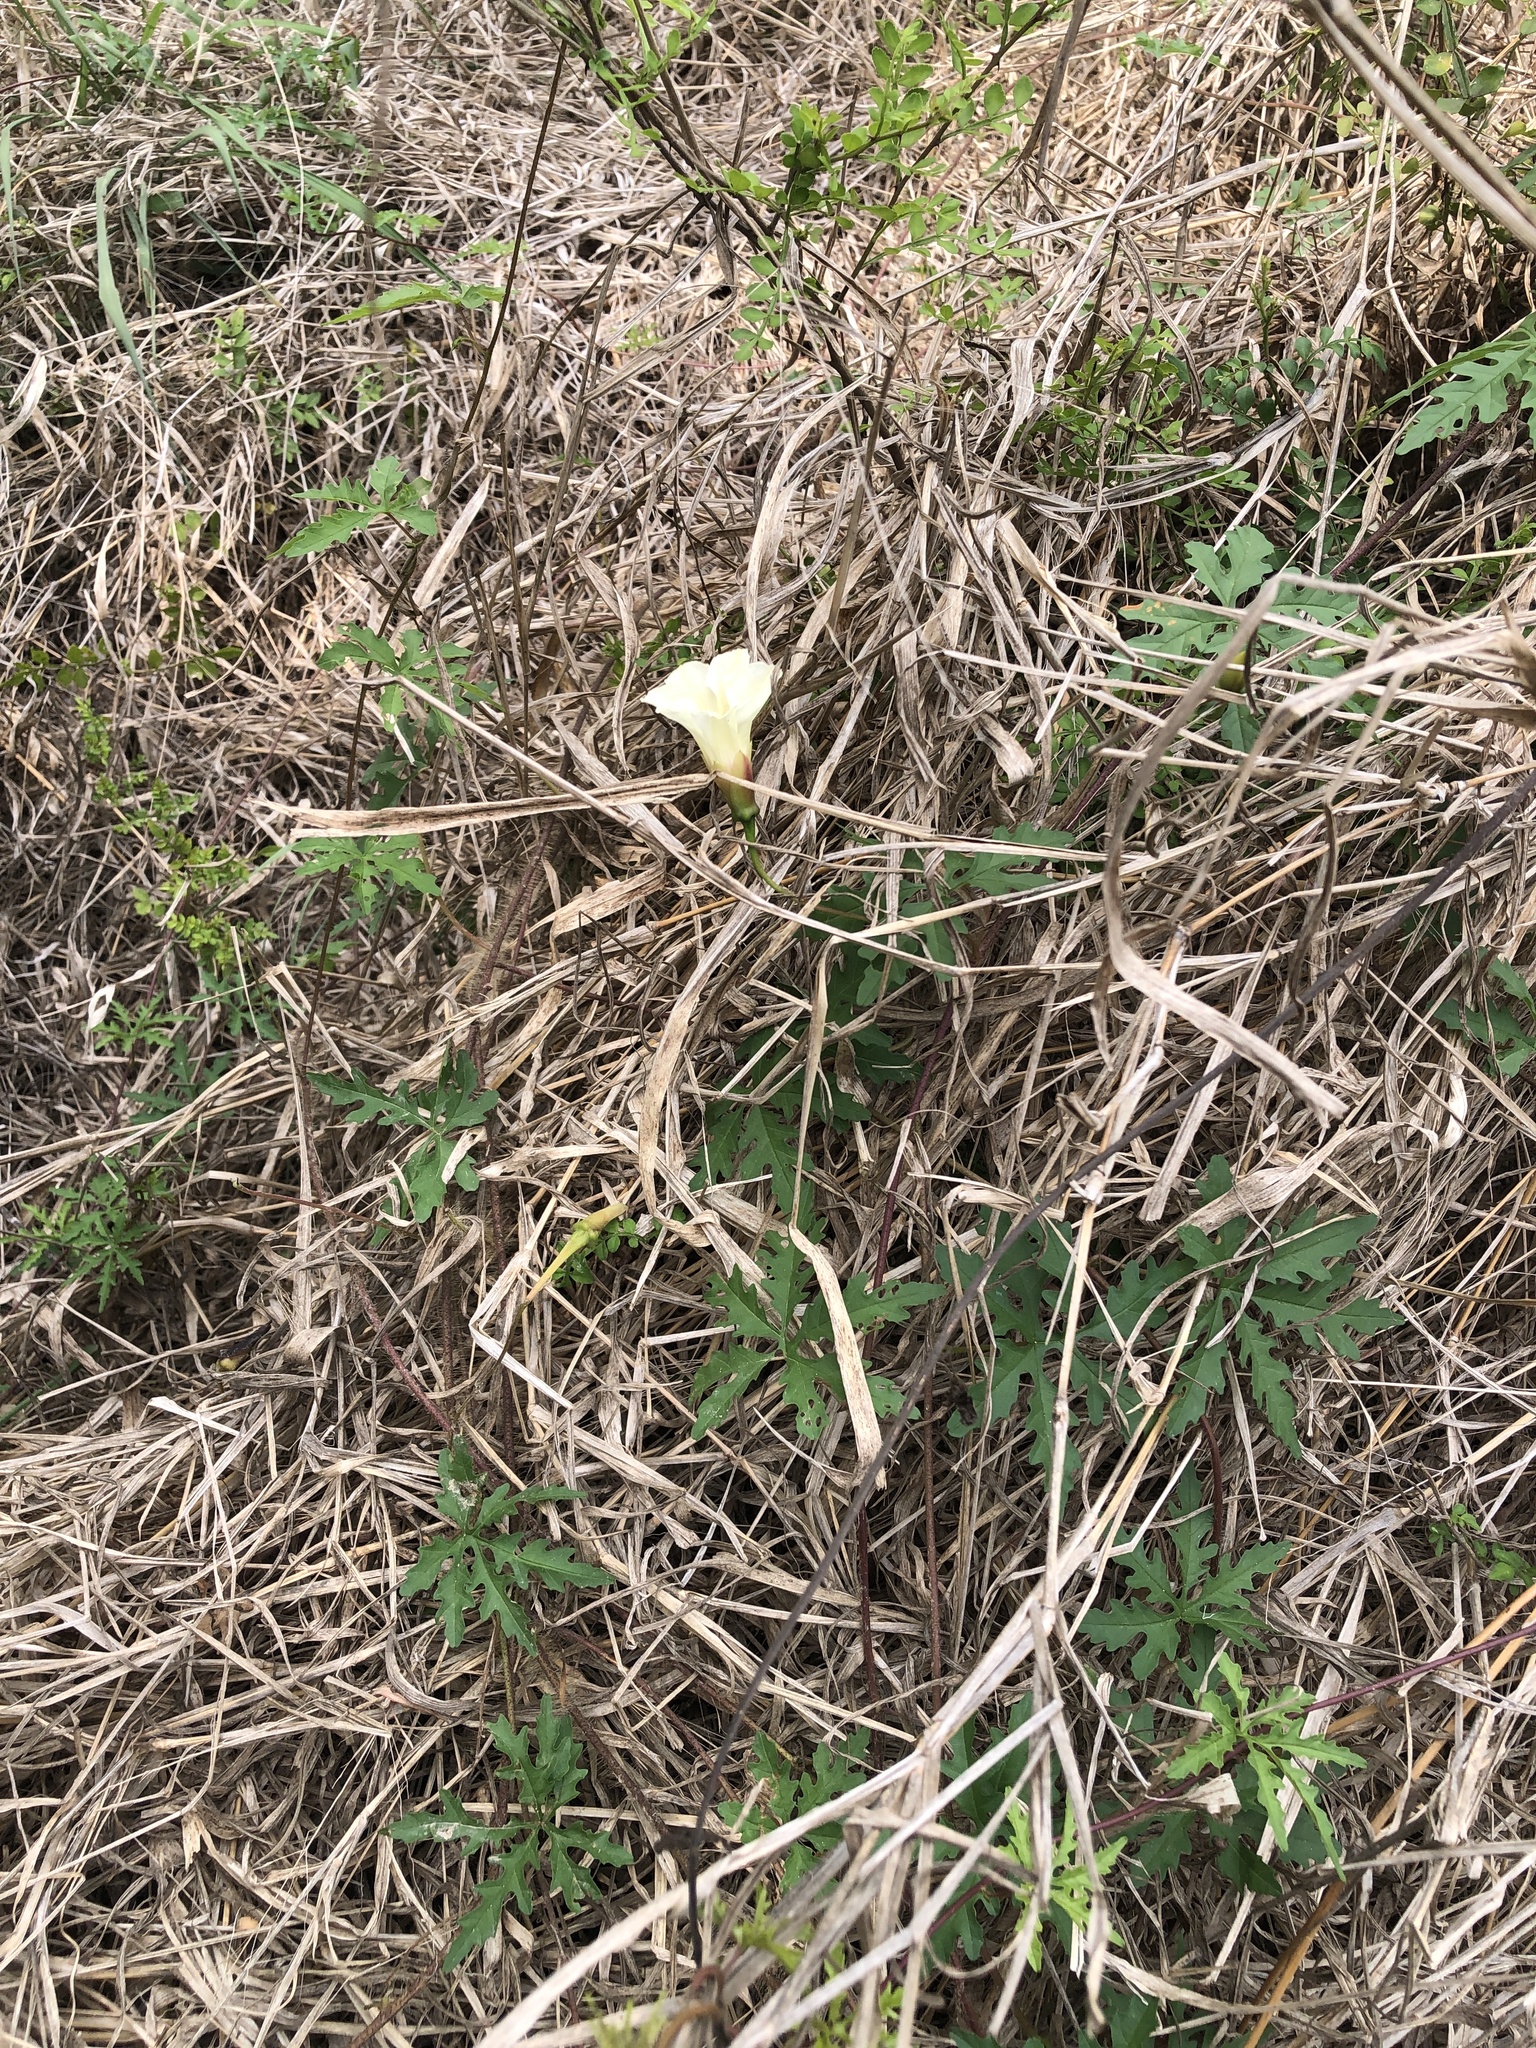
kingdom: Plantae
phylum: Tracheophyta
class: Magnoliopsida
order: Solanales
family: Convolvulaceae
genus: Distimake
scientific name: Distimake dissectus
